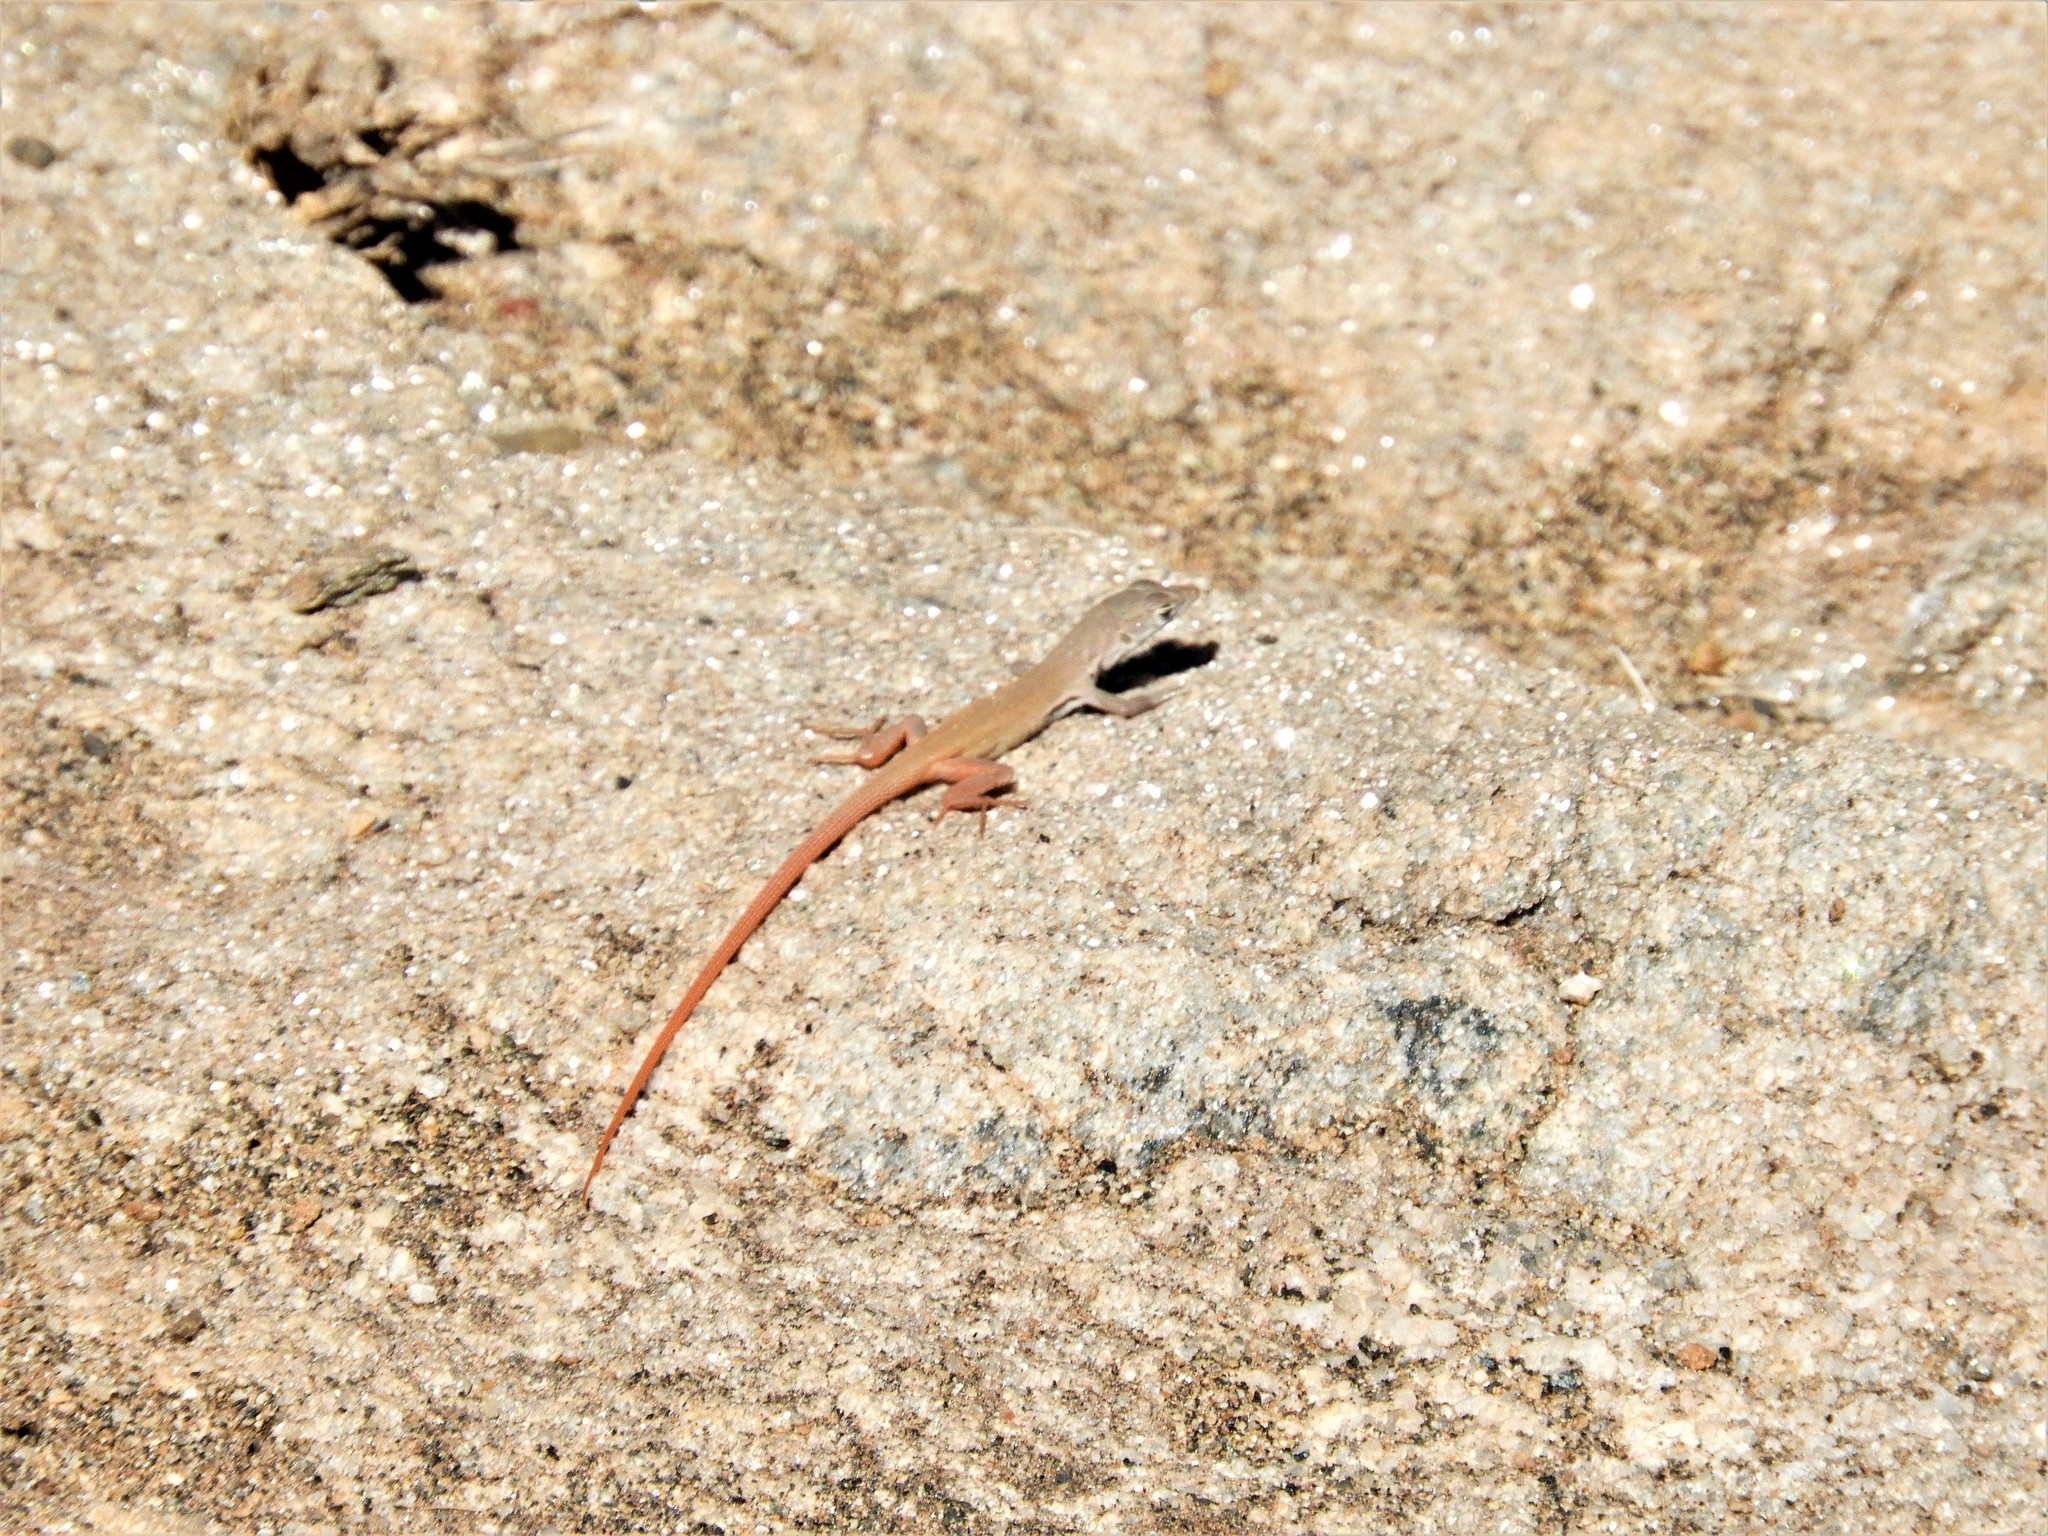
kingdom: Animalia
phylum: Chordata
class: Squamata
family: Lacertidae
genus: Pedioplanis
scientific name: Pedioplanis inornata
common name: Plain sand lizard
